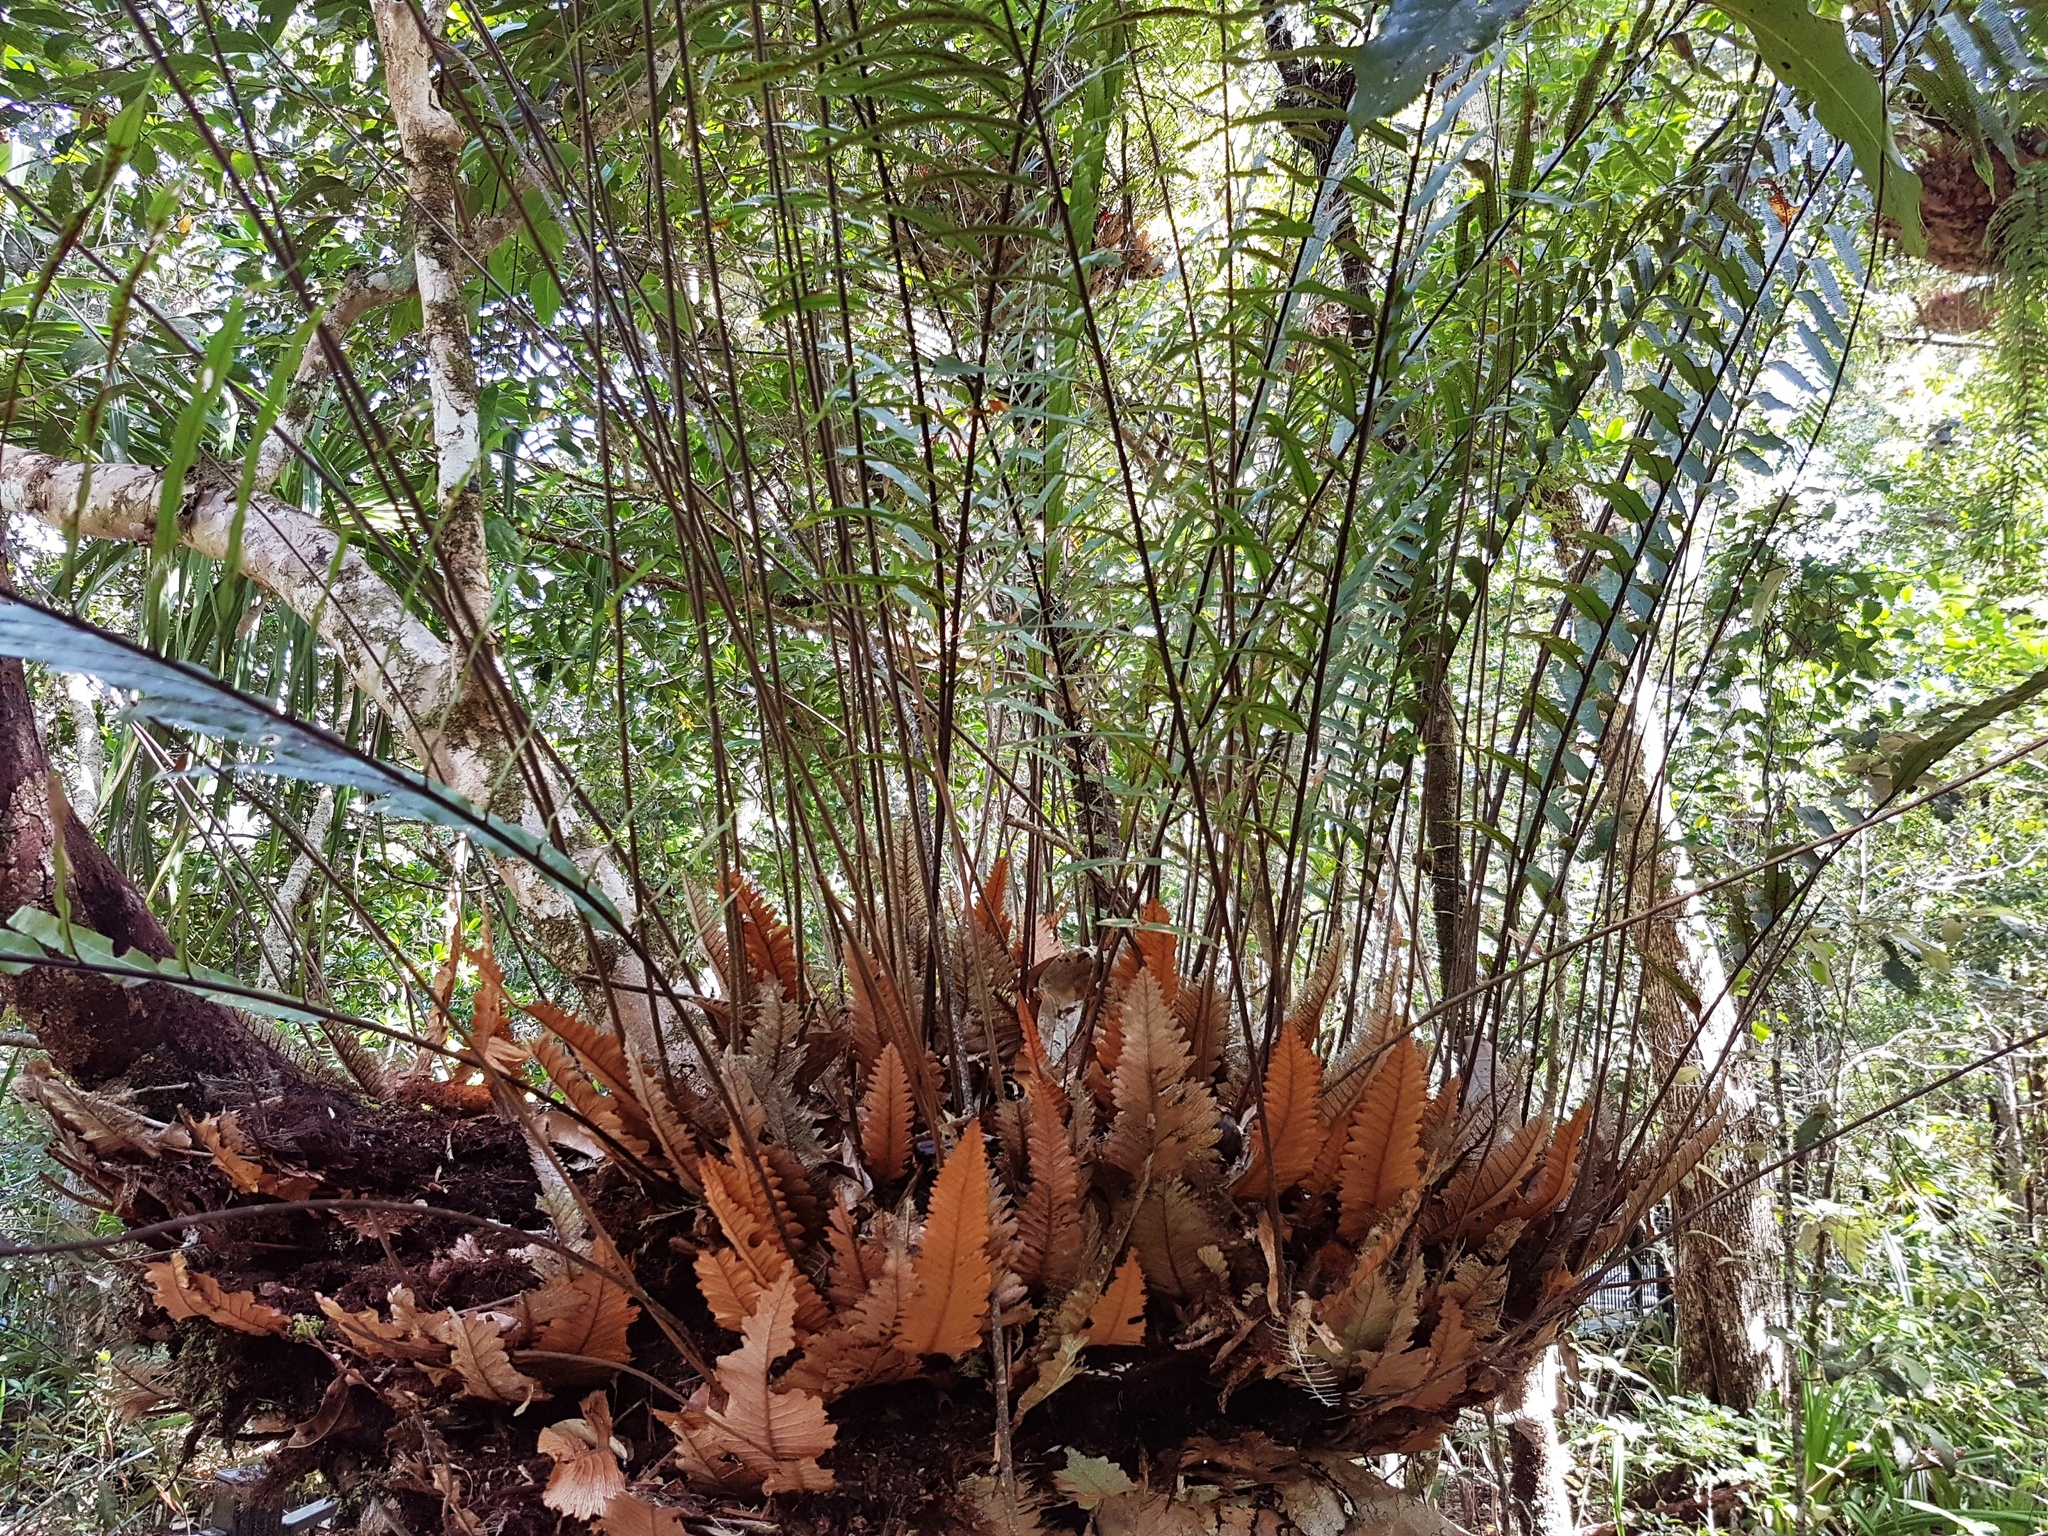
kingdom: Plantae
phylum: Tracheophyta
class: Polypodiopsida
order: Polypodiales
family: Polypodiaceae
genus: Drynaria
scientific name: Drynaria rigidula
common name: Basket fern
